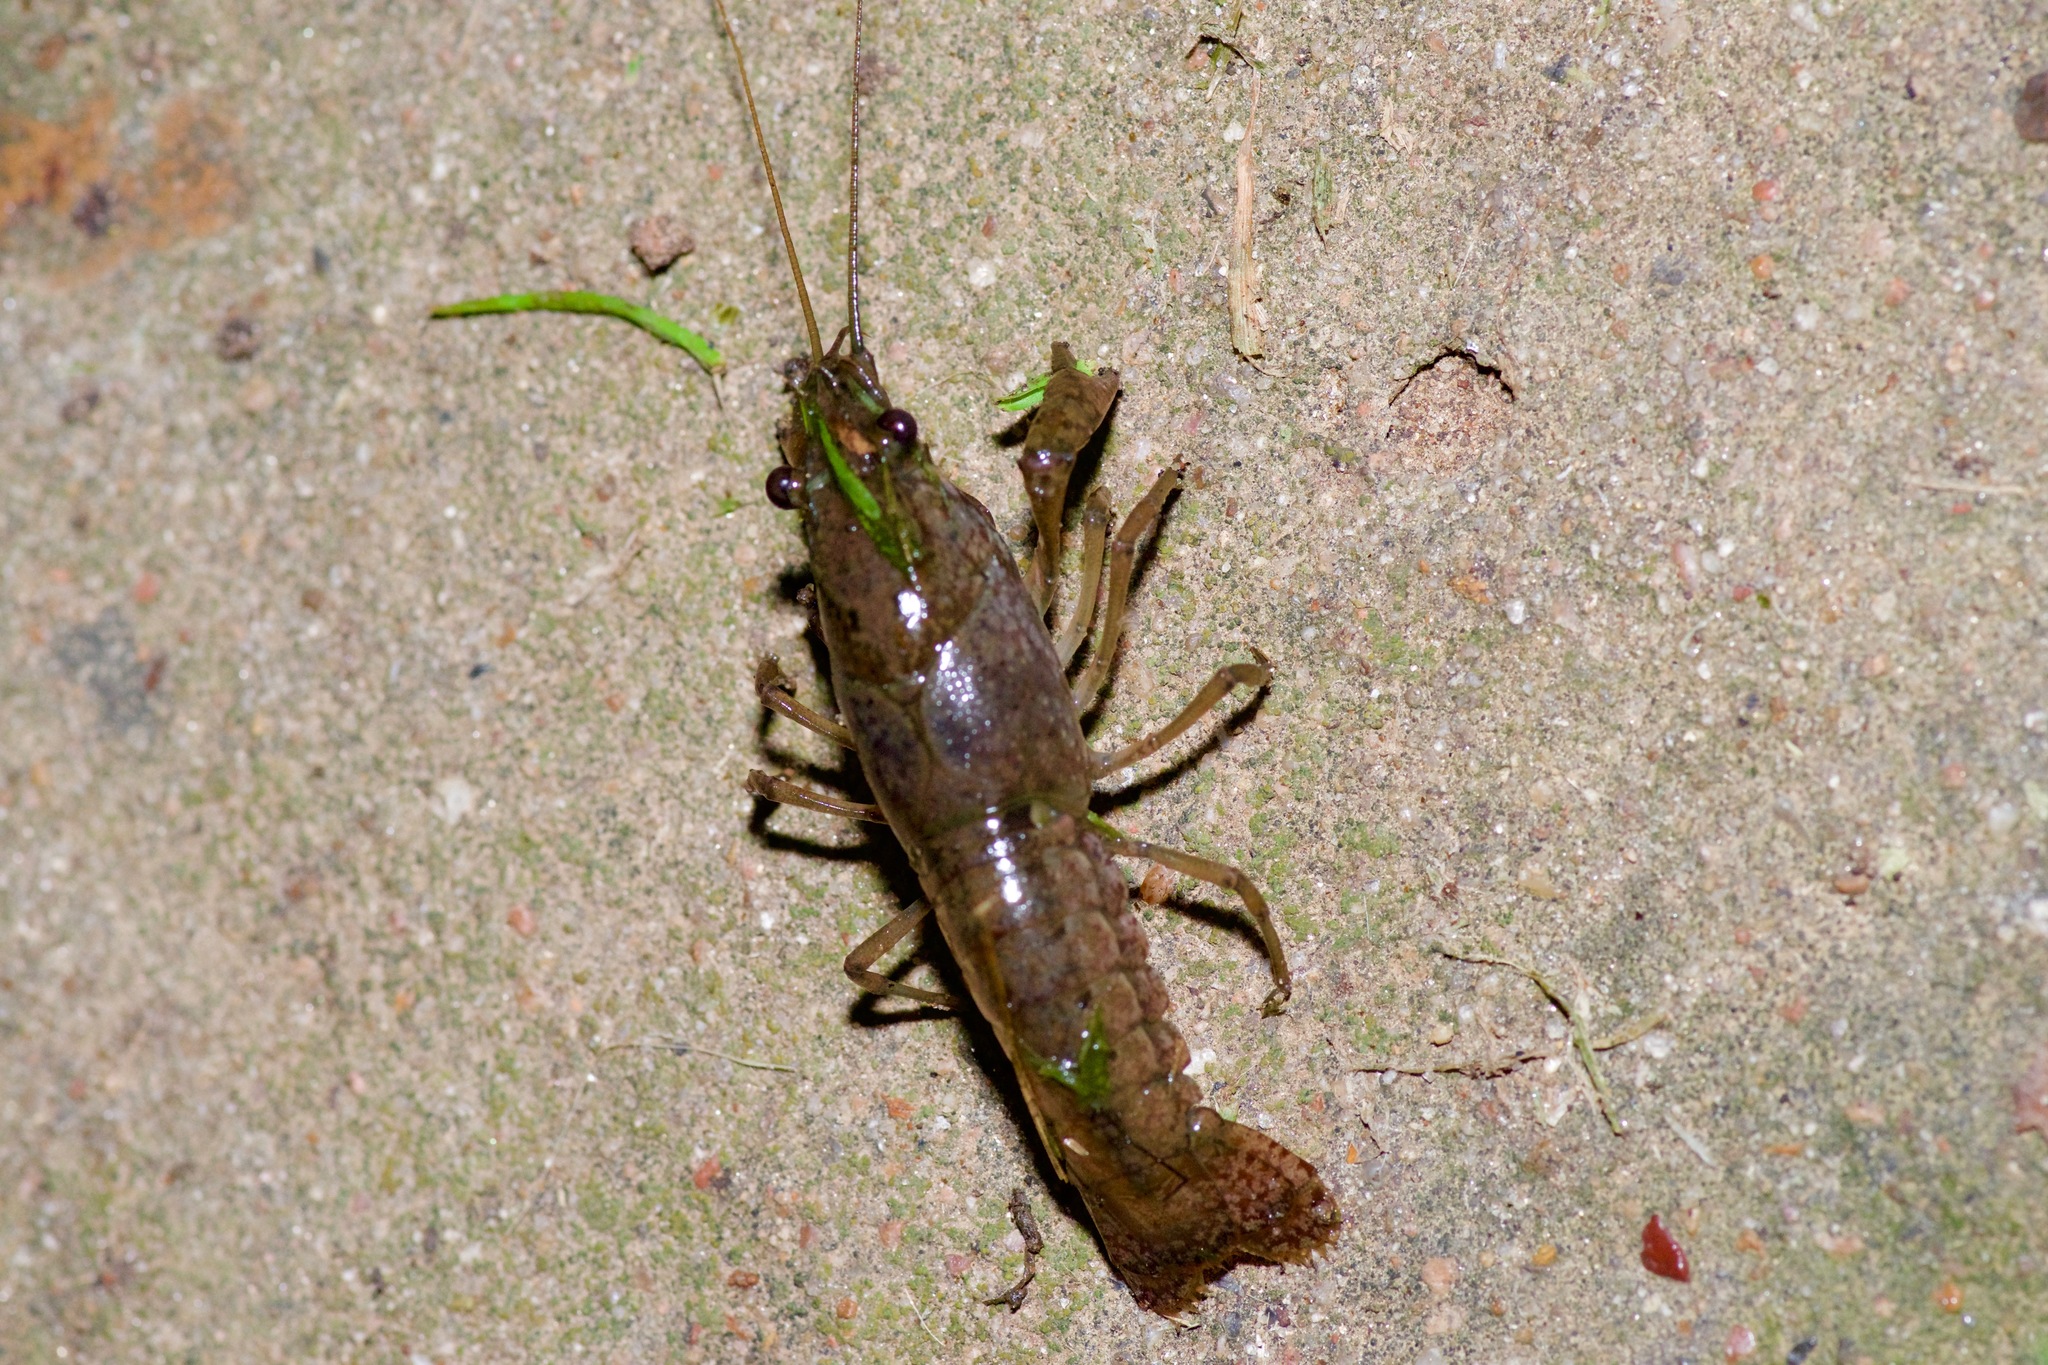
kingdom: Animalia
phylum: Arthropoda
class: Malacostraca
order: Decapoda
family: Cambaridae
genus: Procambarus
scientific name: Procambarus clarkii
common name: Red swamp crayfish
